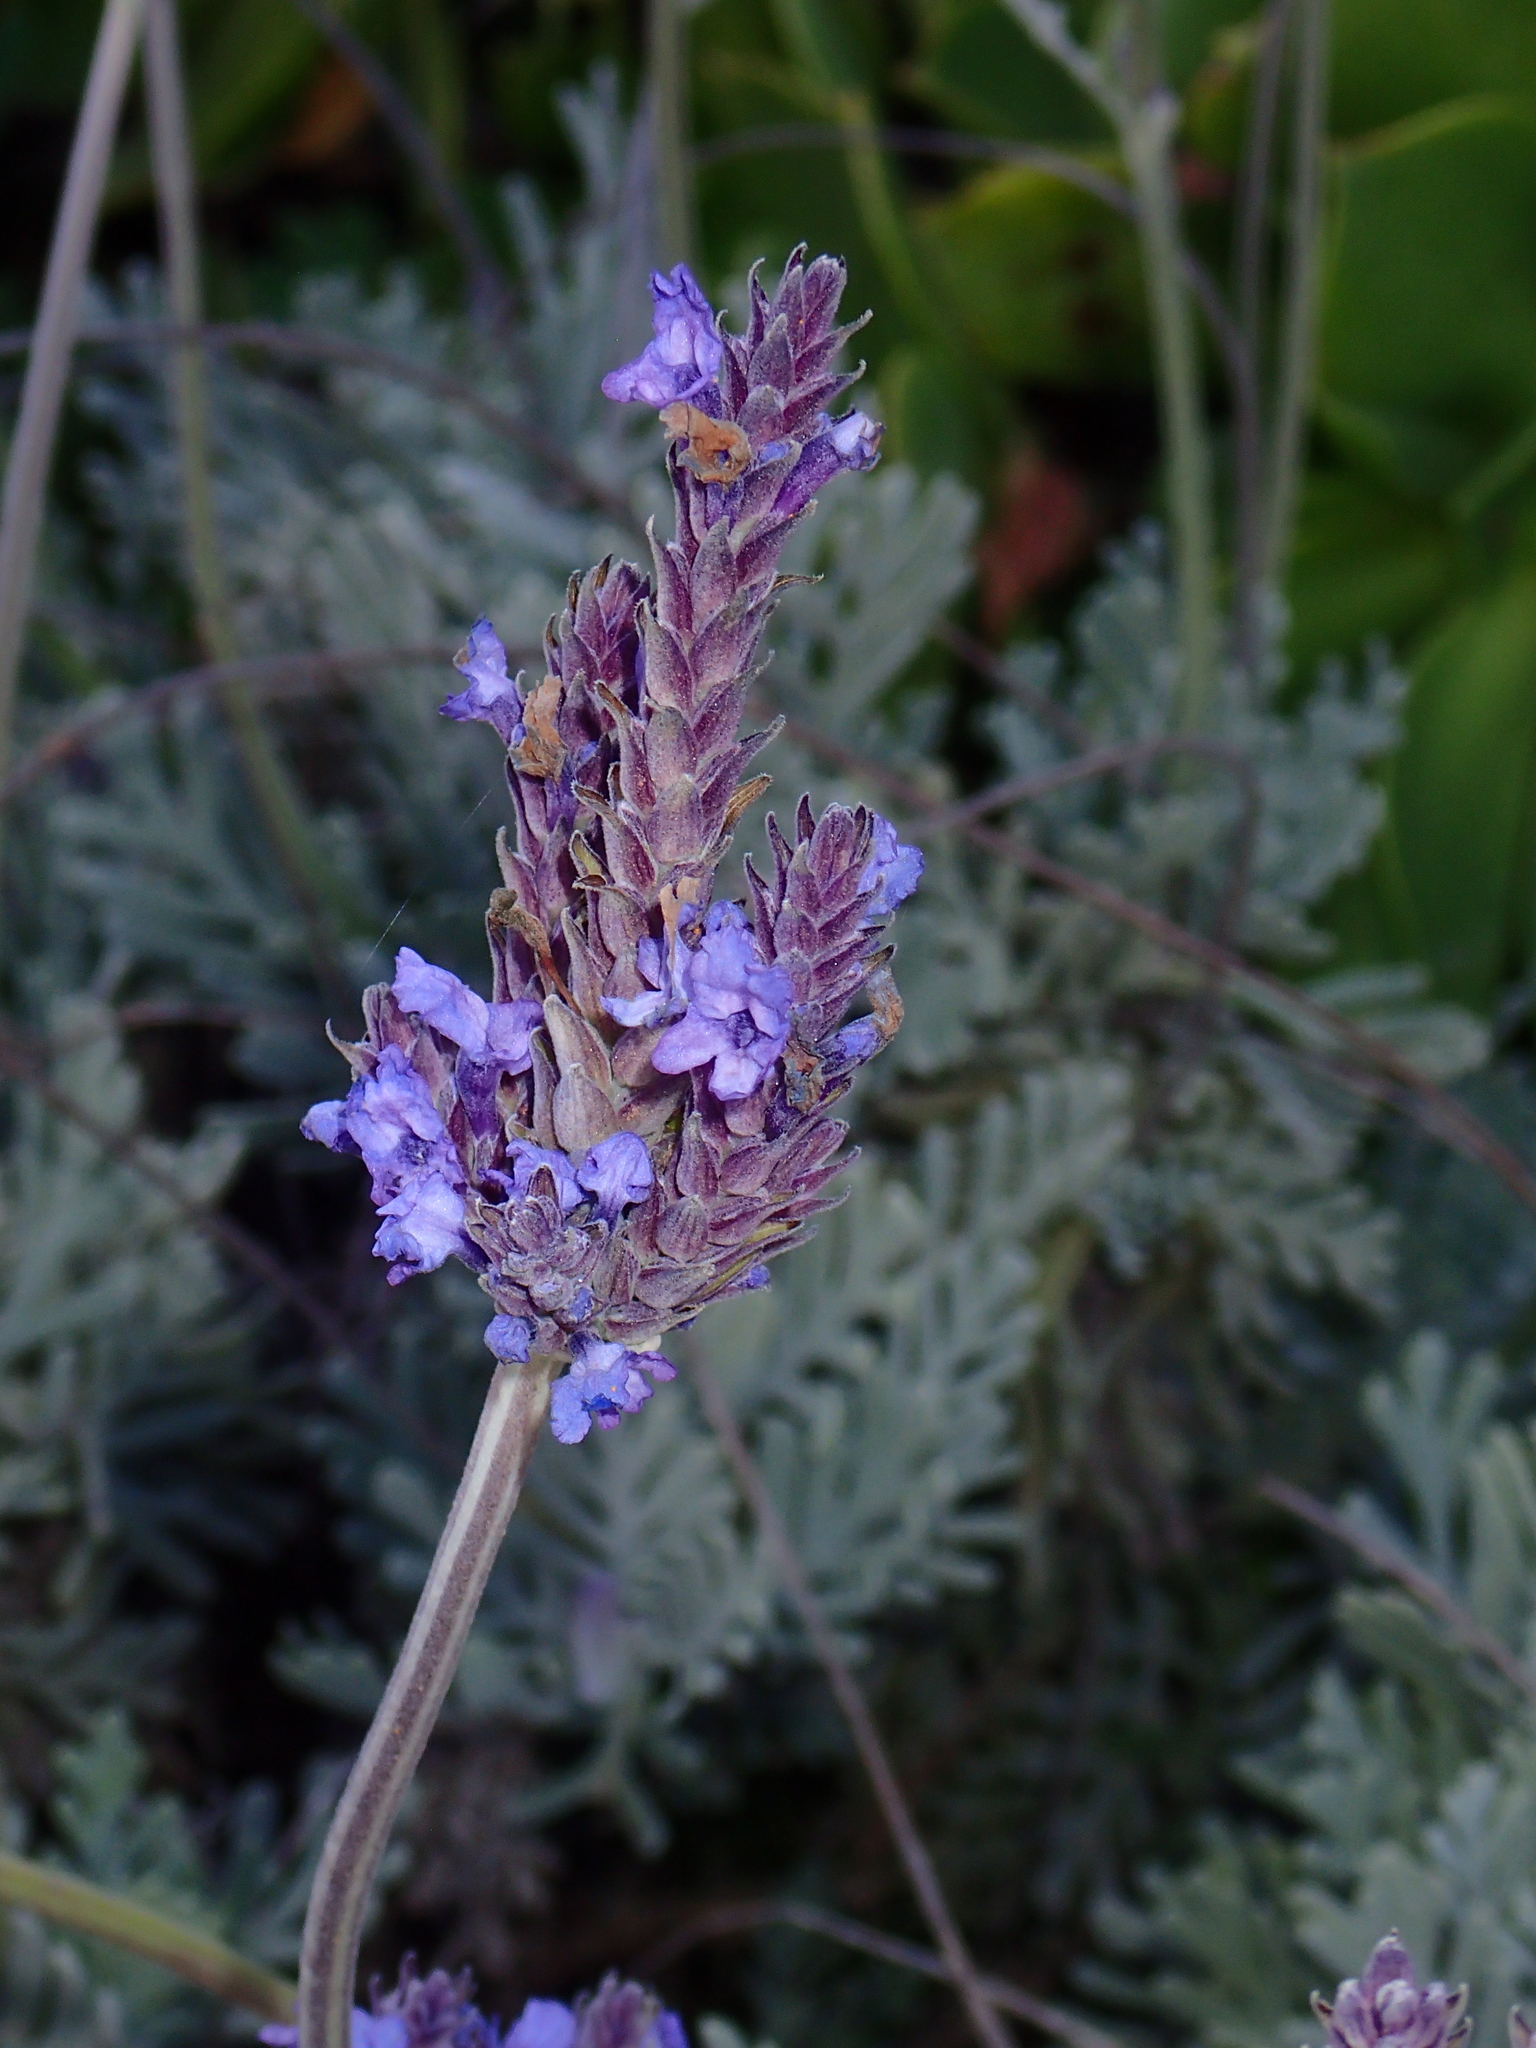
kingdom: Plantae
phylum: Tracheophyta
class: Magnoliopsida
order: Lamiales
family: Lamiaceae
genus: Lavandula
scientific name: Lavandula pinnata
